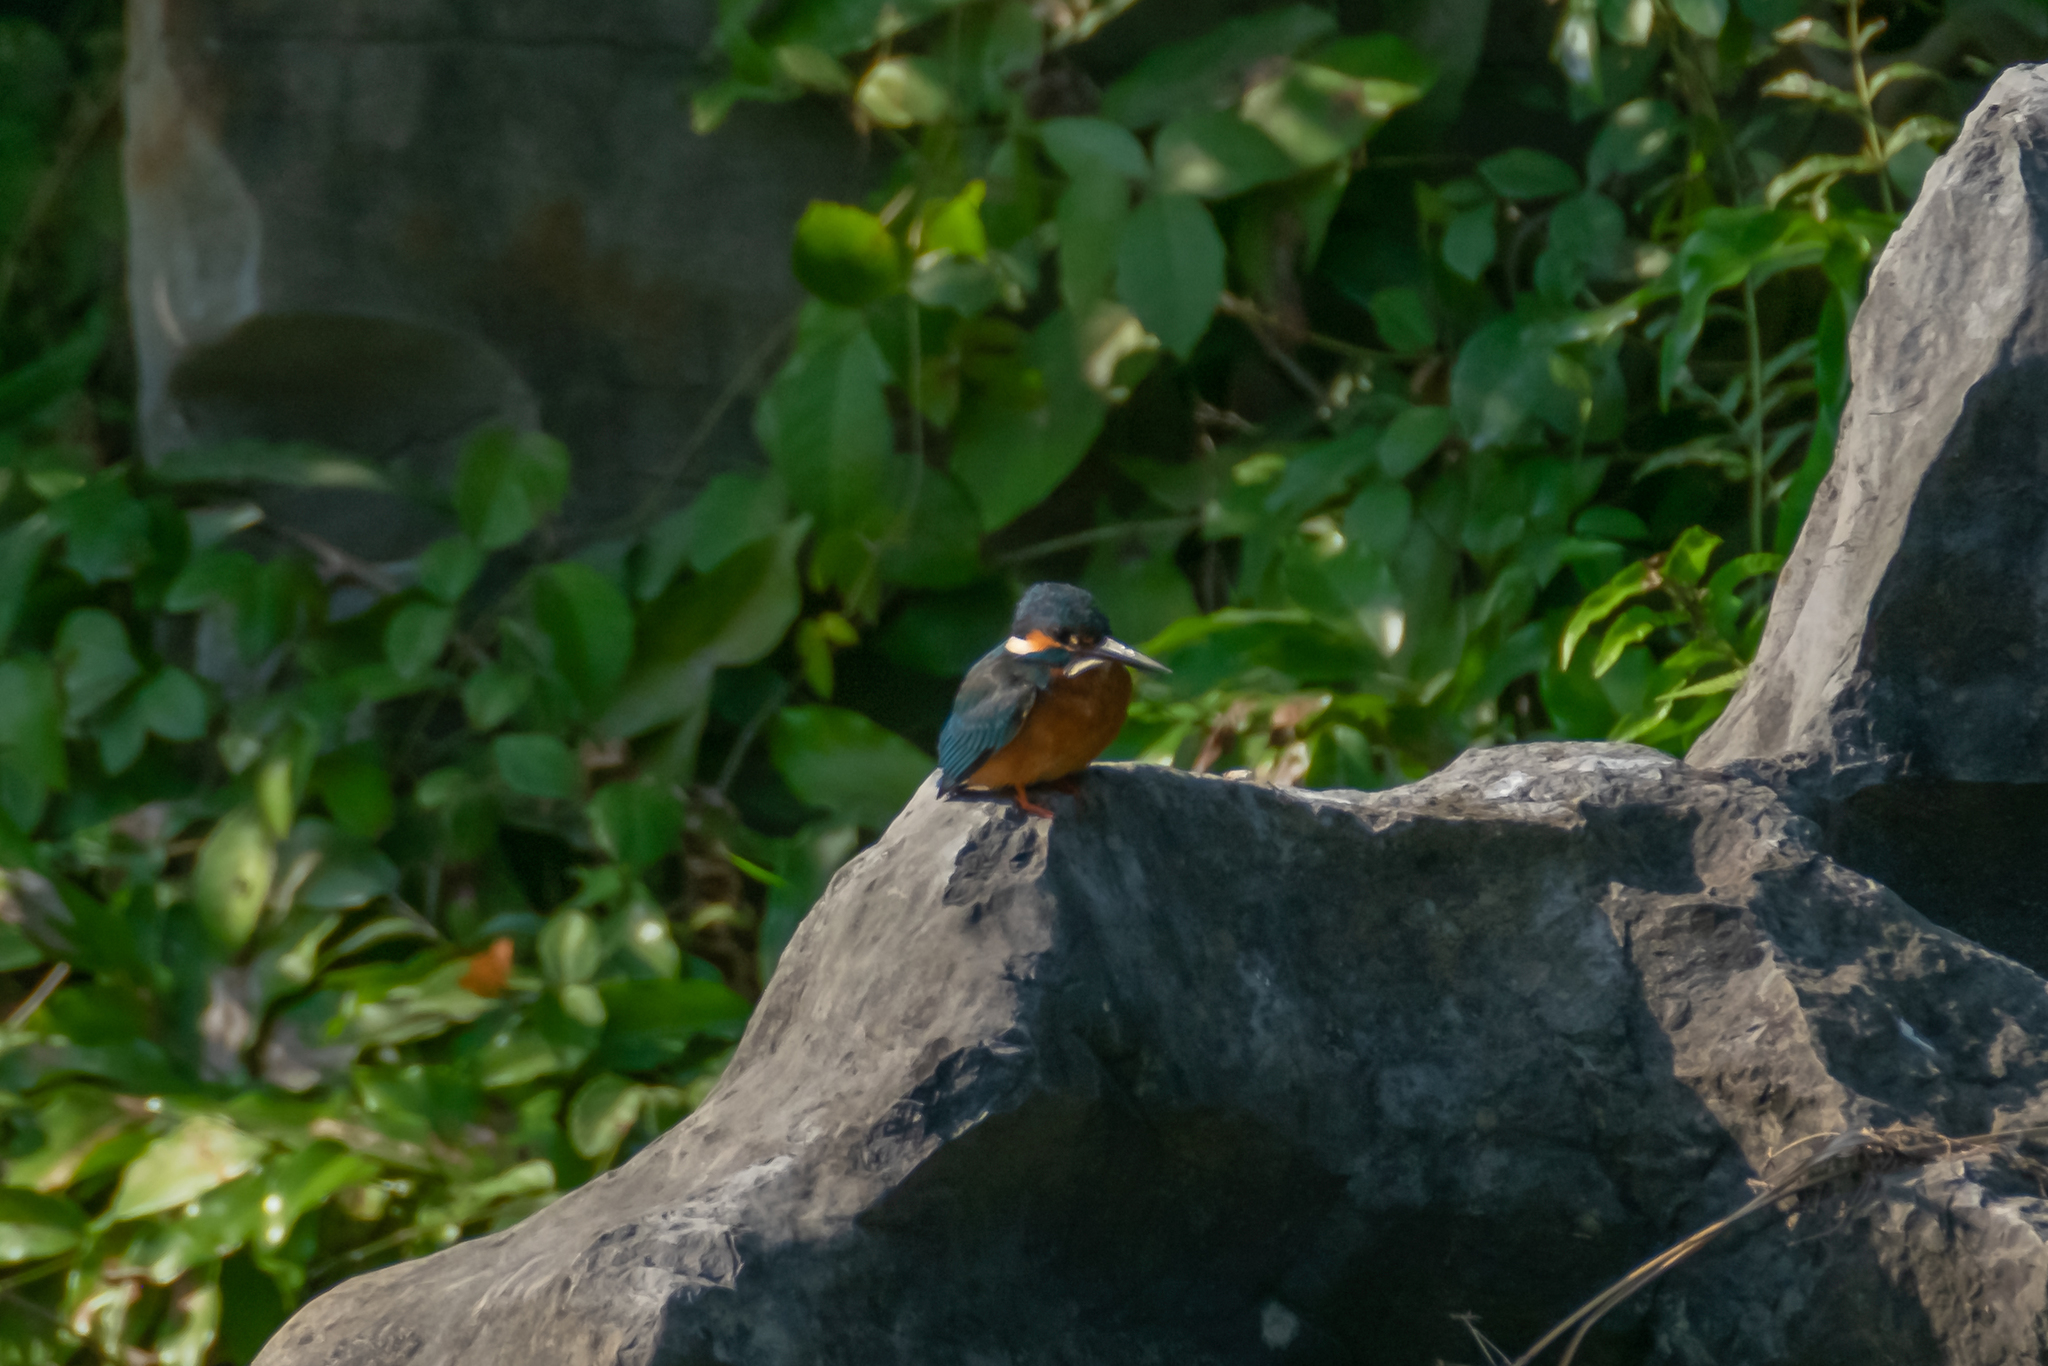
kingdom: Animalia
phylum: Chordata
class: Aves
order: Coraciiformes
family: Alcedinidae
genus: Alcedo
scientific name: Alcedo atthis
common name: Common kingfisher
